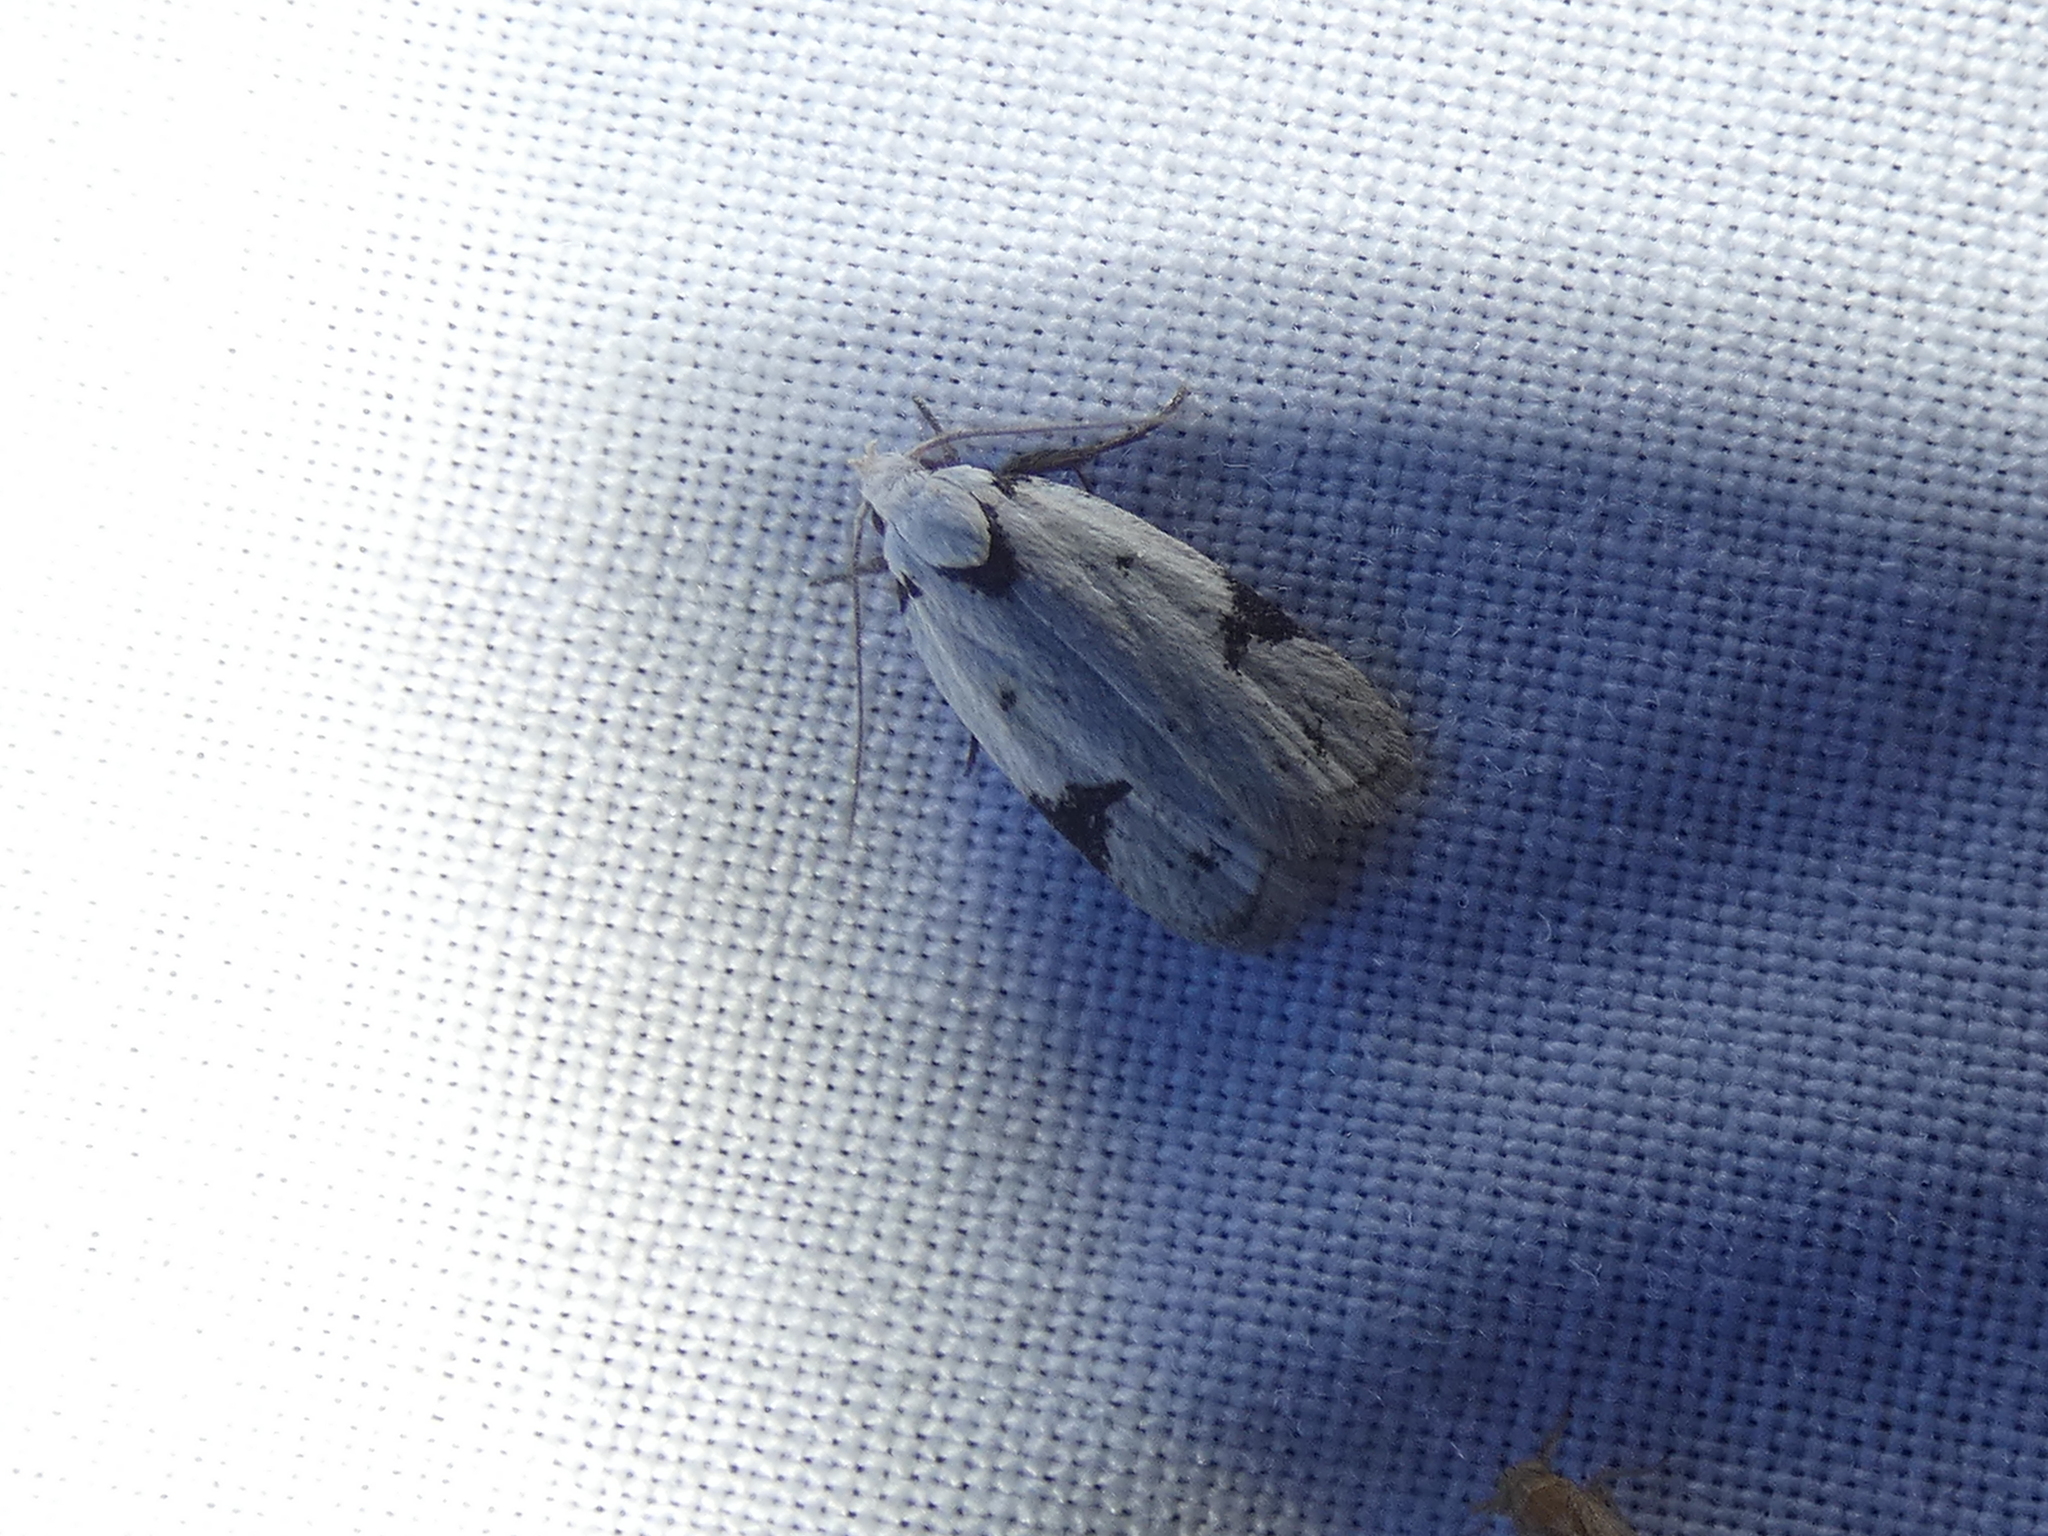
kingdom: Animalia
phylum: Arthropoda
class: Insecta
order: Lepidoptera
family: Oecophoridae
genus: Inga
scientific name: Inga sparsiciliella
